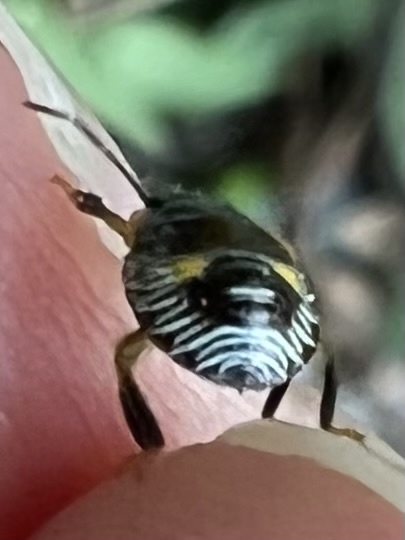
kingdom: Animalia
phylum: Arthropoda
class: Insecta
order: Hemiptera
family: Pentatomidae
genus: Chinavia
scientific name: Chinavia hilaris
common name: Green stink bug
